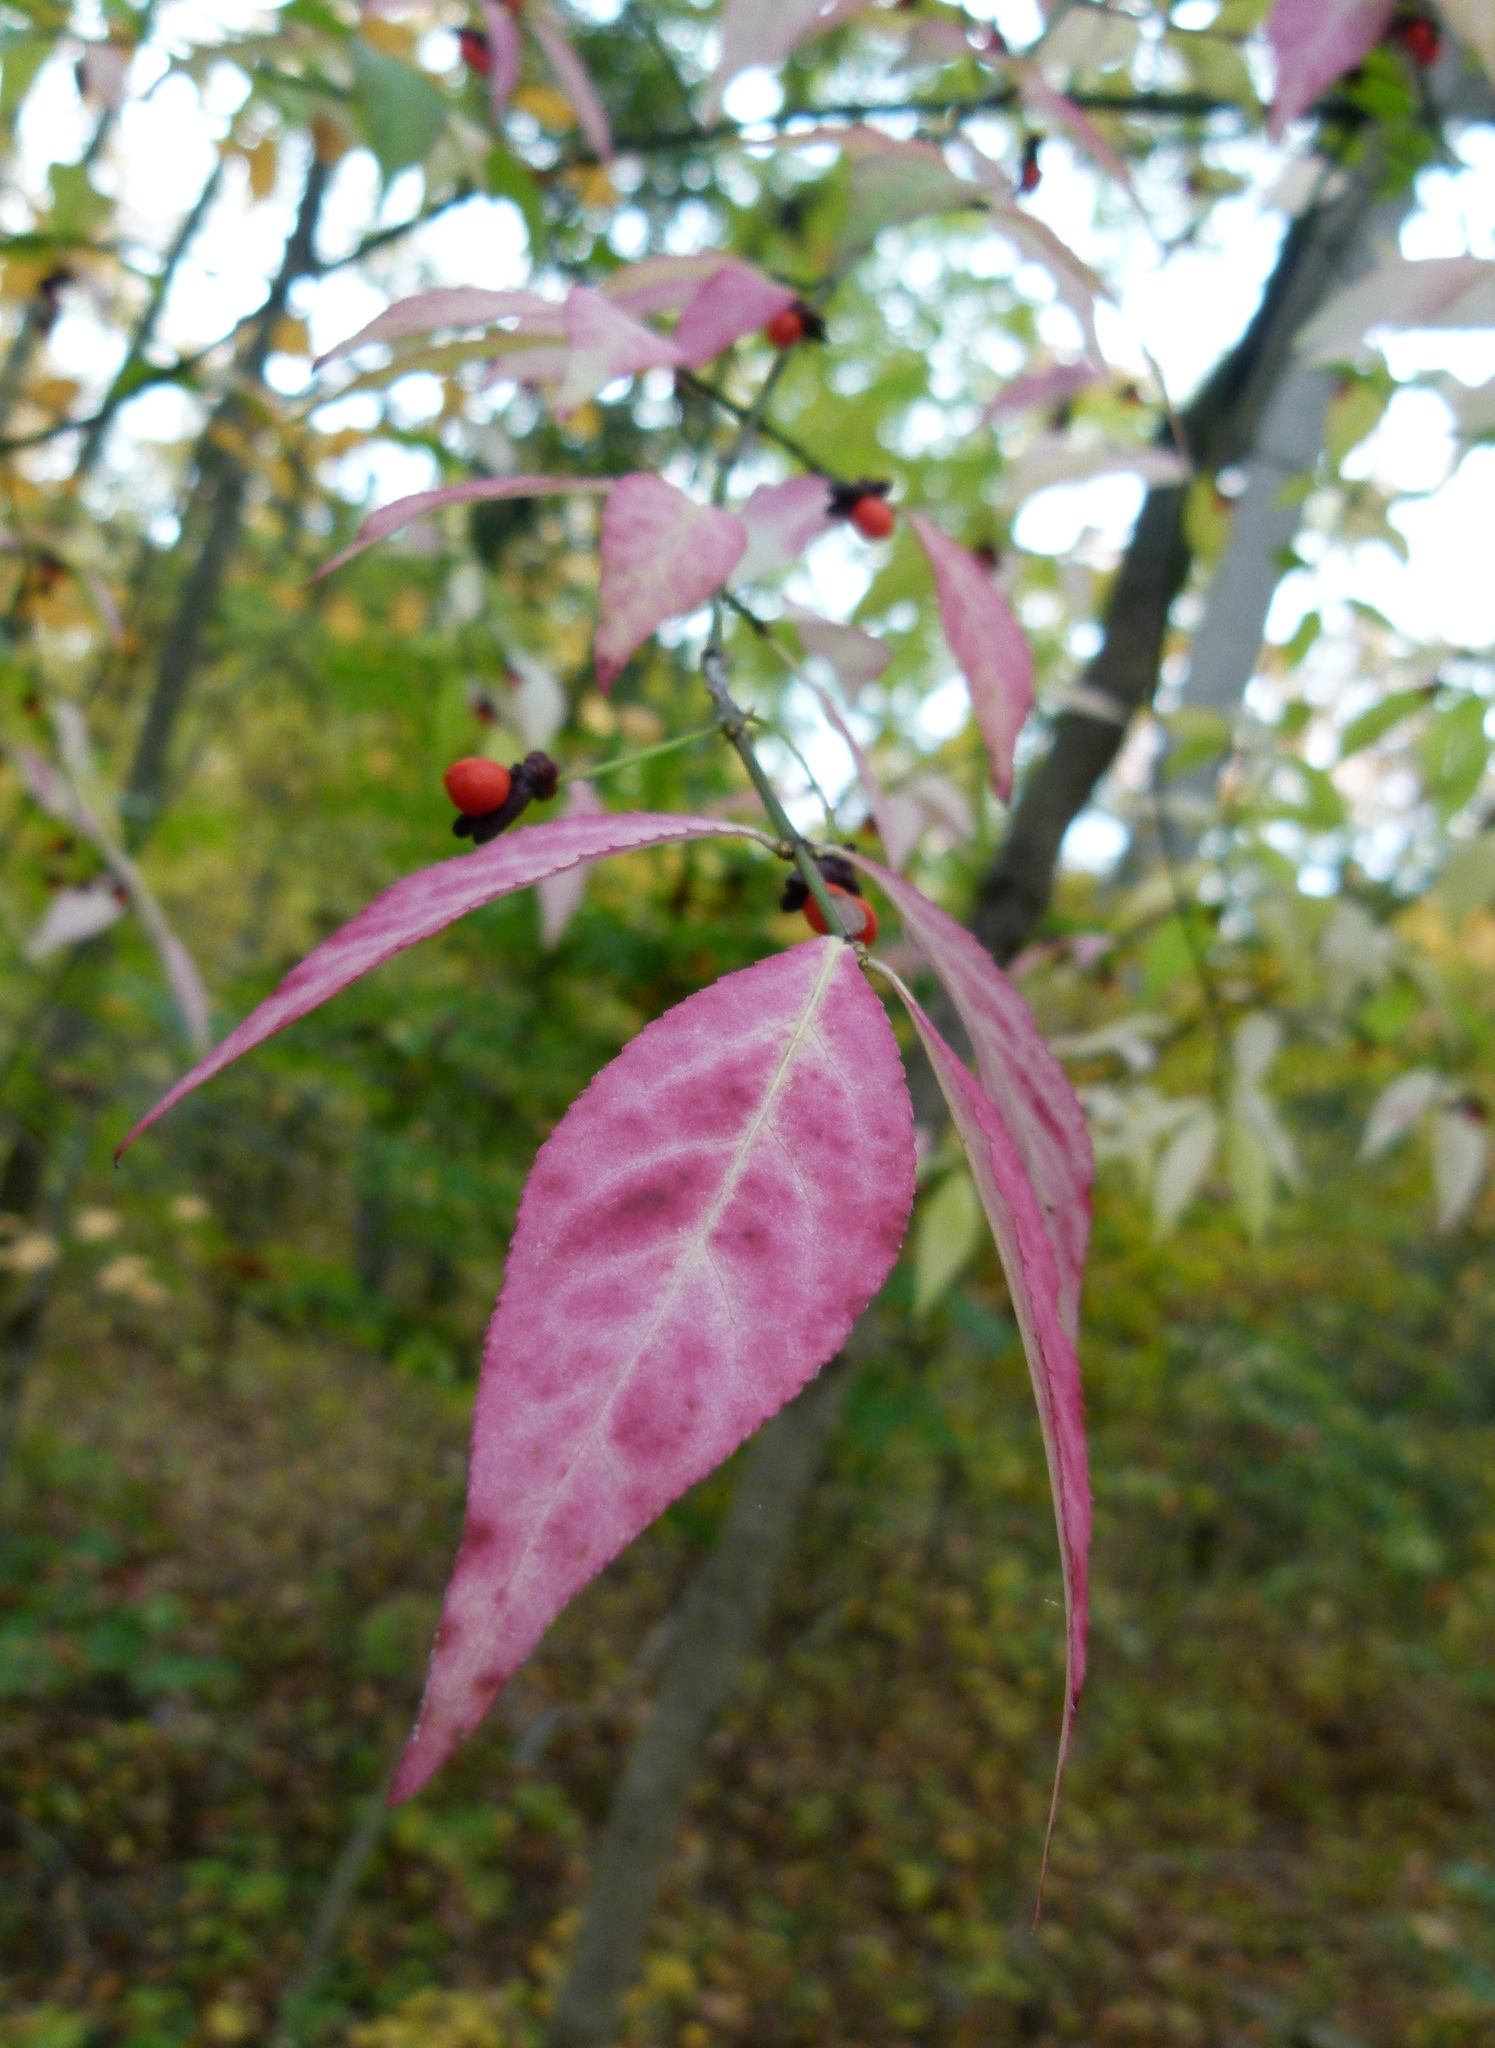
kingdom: Plantae
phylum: Tracheophyta
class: Magnoliopsida
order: Celastrales
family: Celastraceae
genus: Euonymus
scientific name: Euonymus alatus
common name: Winged euonymus
